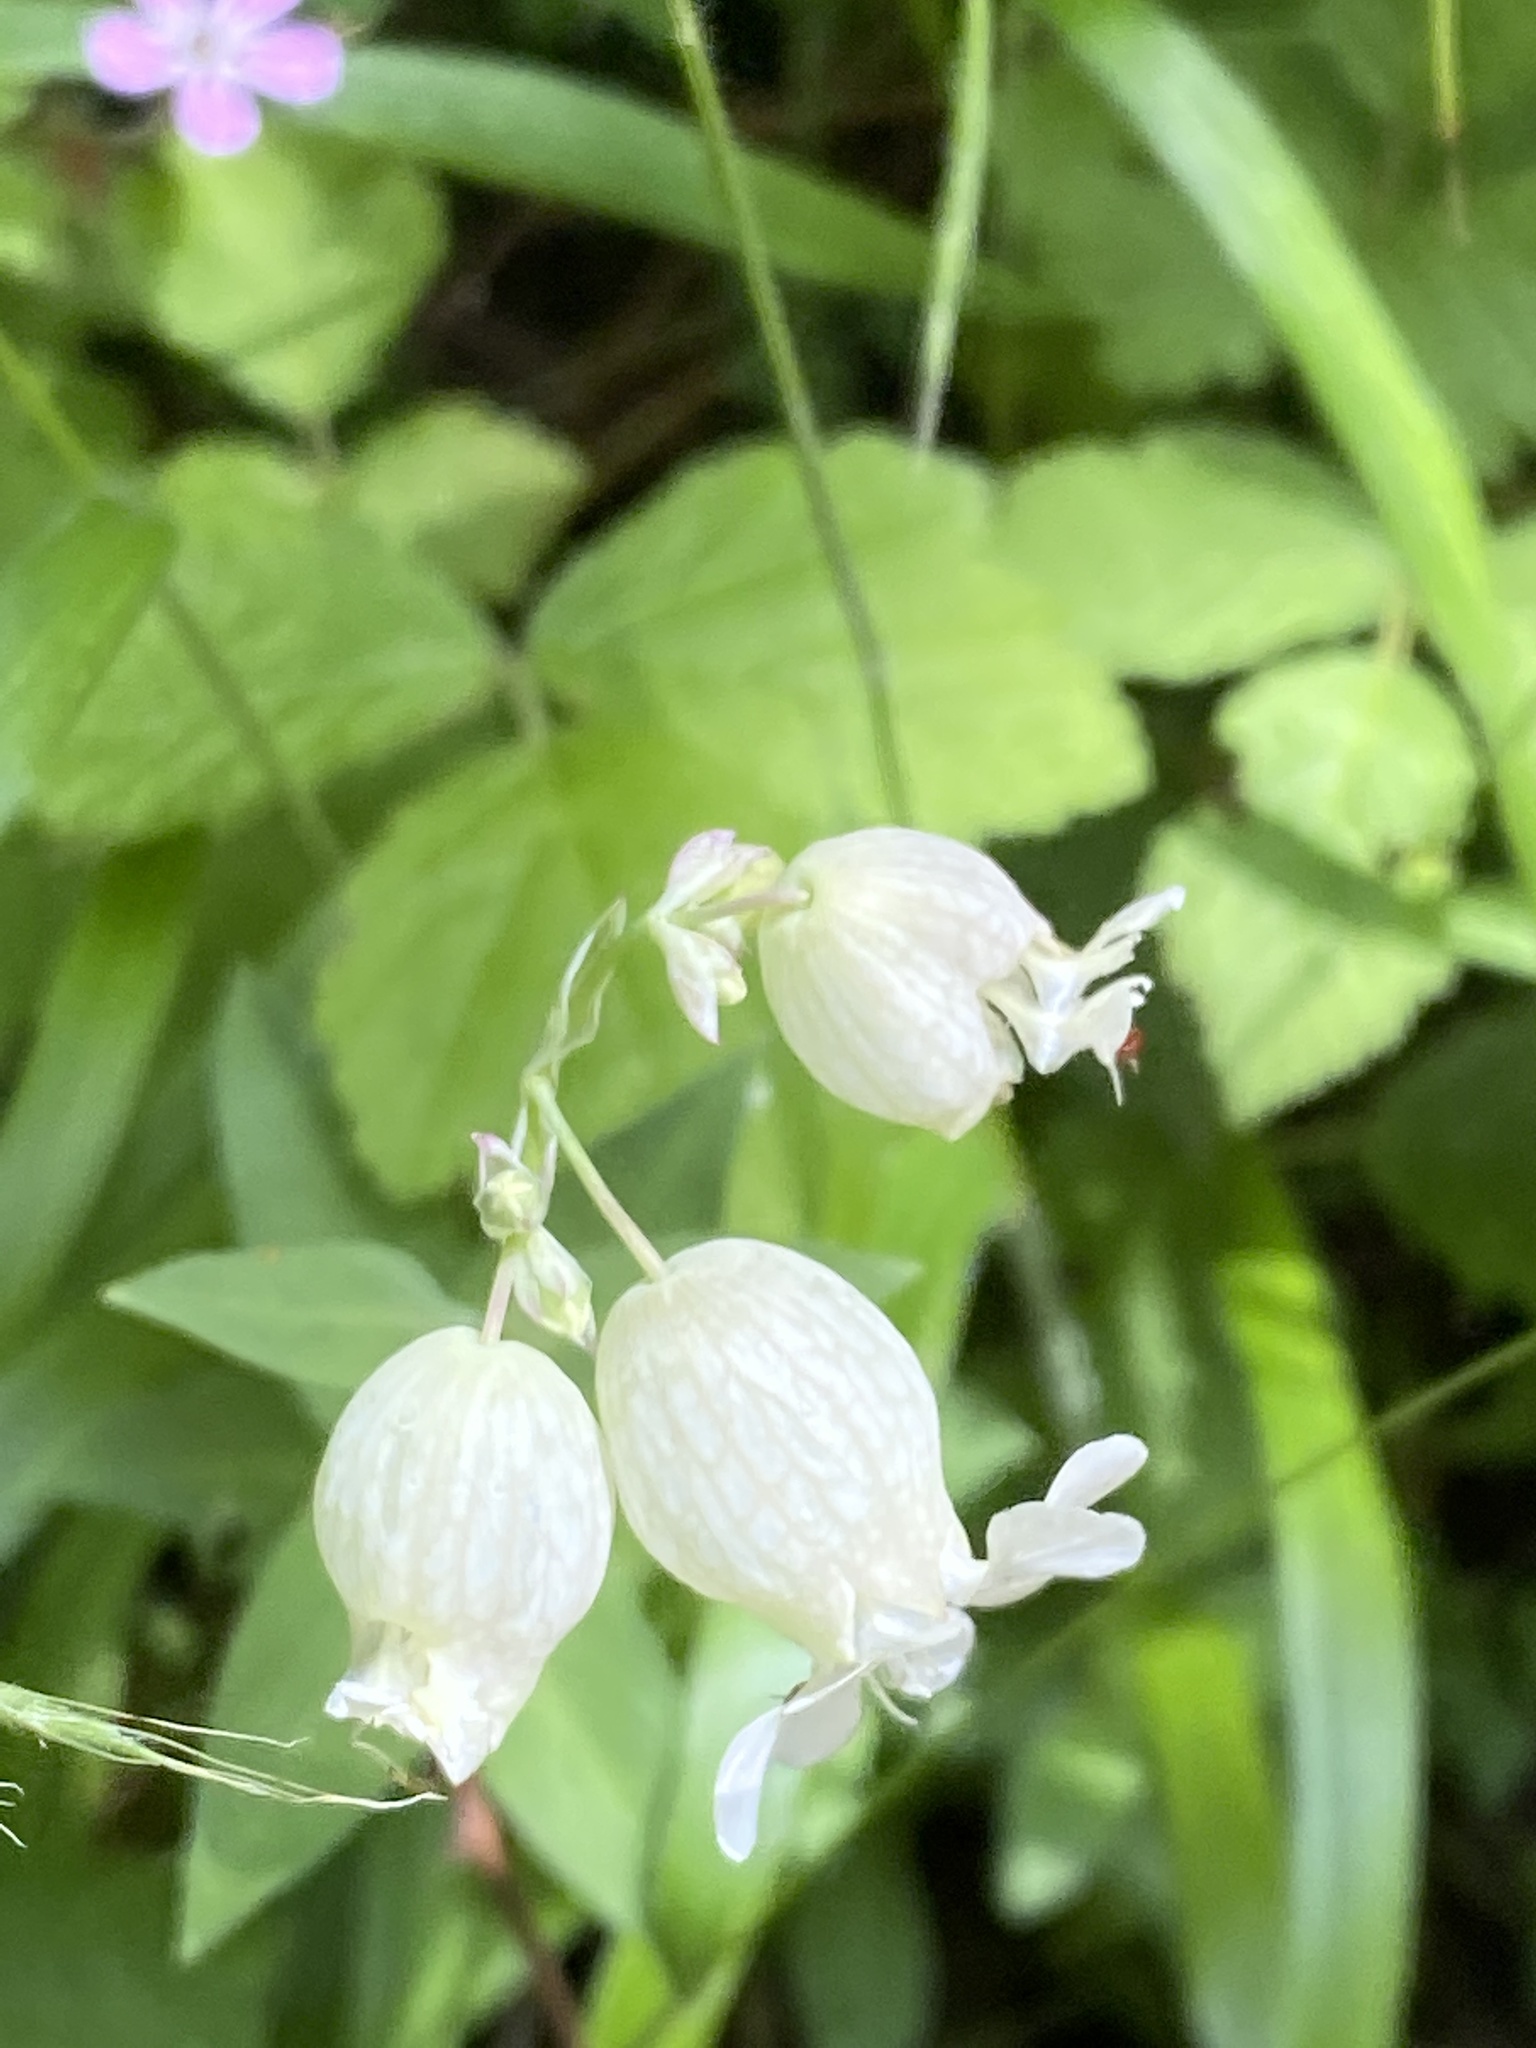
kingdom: Plantae
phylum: Tracheophyta
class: Magnoliopsida
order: Caryophyllales
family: Caryophyllaceae
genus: Silene
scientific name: Silene vulgaris
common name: Bladder campion
